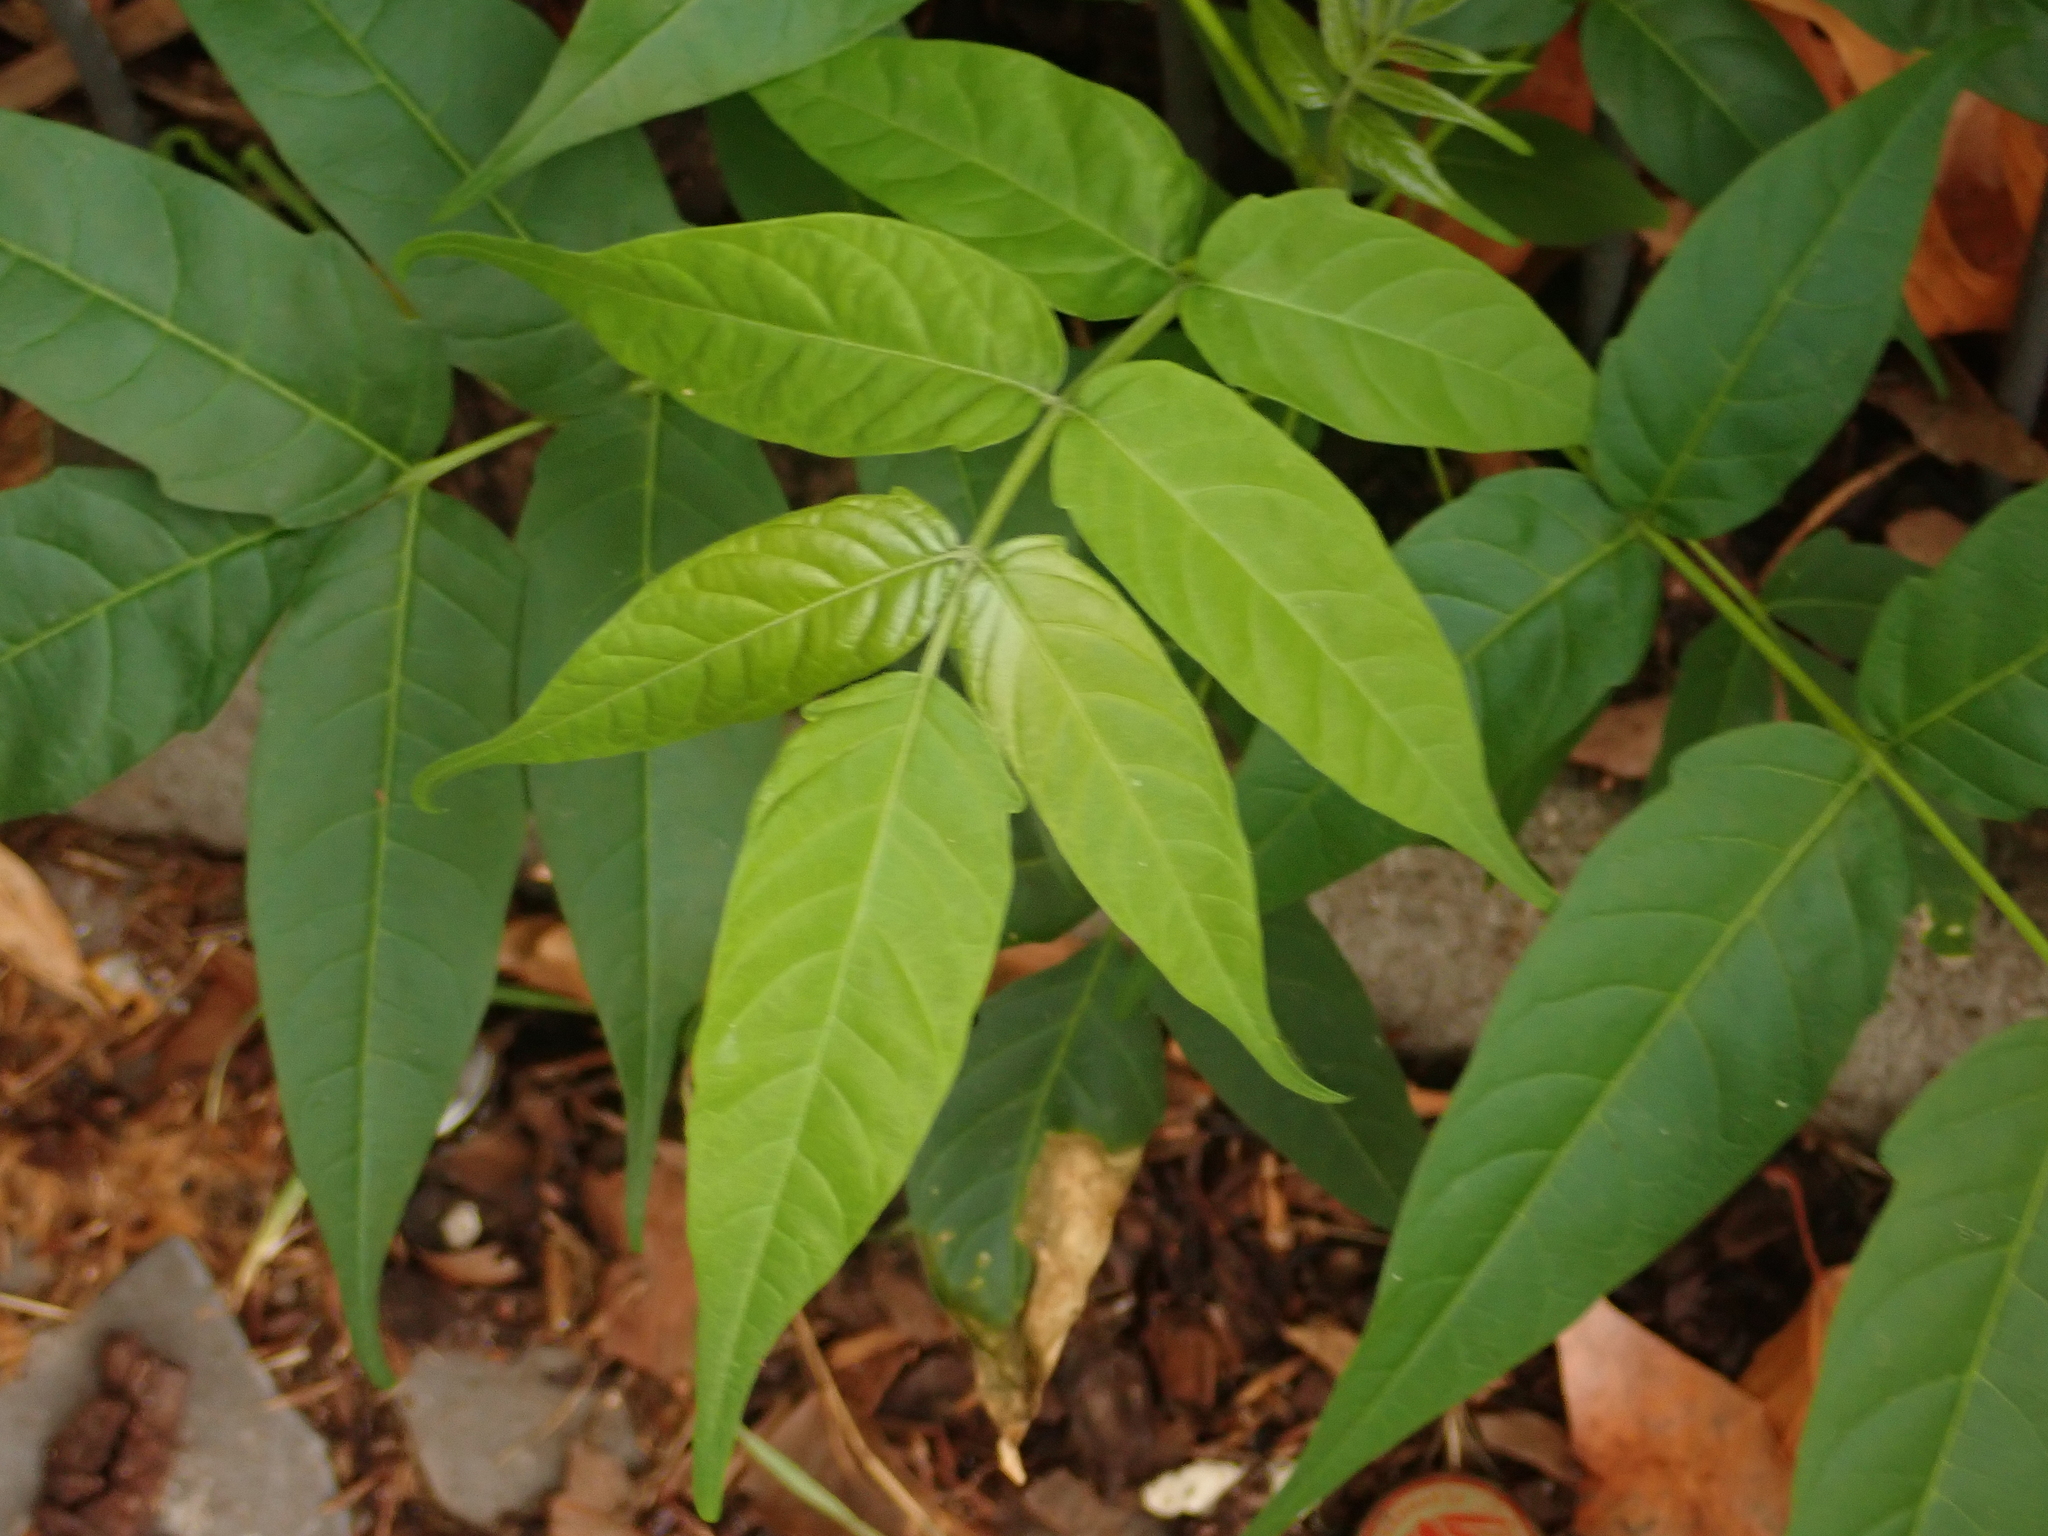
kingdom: Plantae
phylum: Tracheophyta
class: Magnoliopsida
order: Sapindales
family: Simaroubaceae
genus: Ailanthus
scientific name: Ailanthus altissima
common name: Tree-of-heaven
